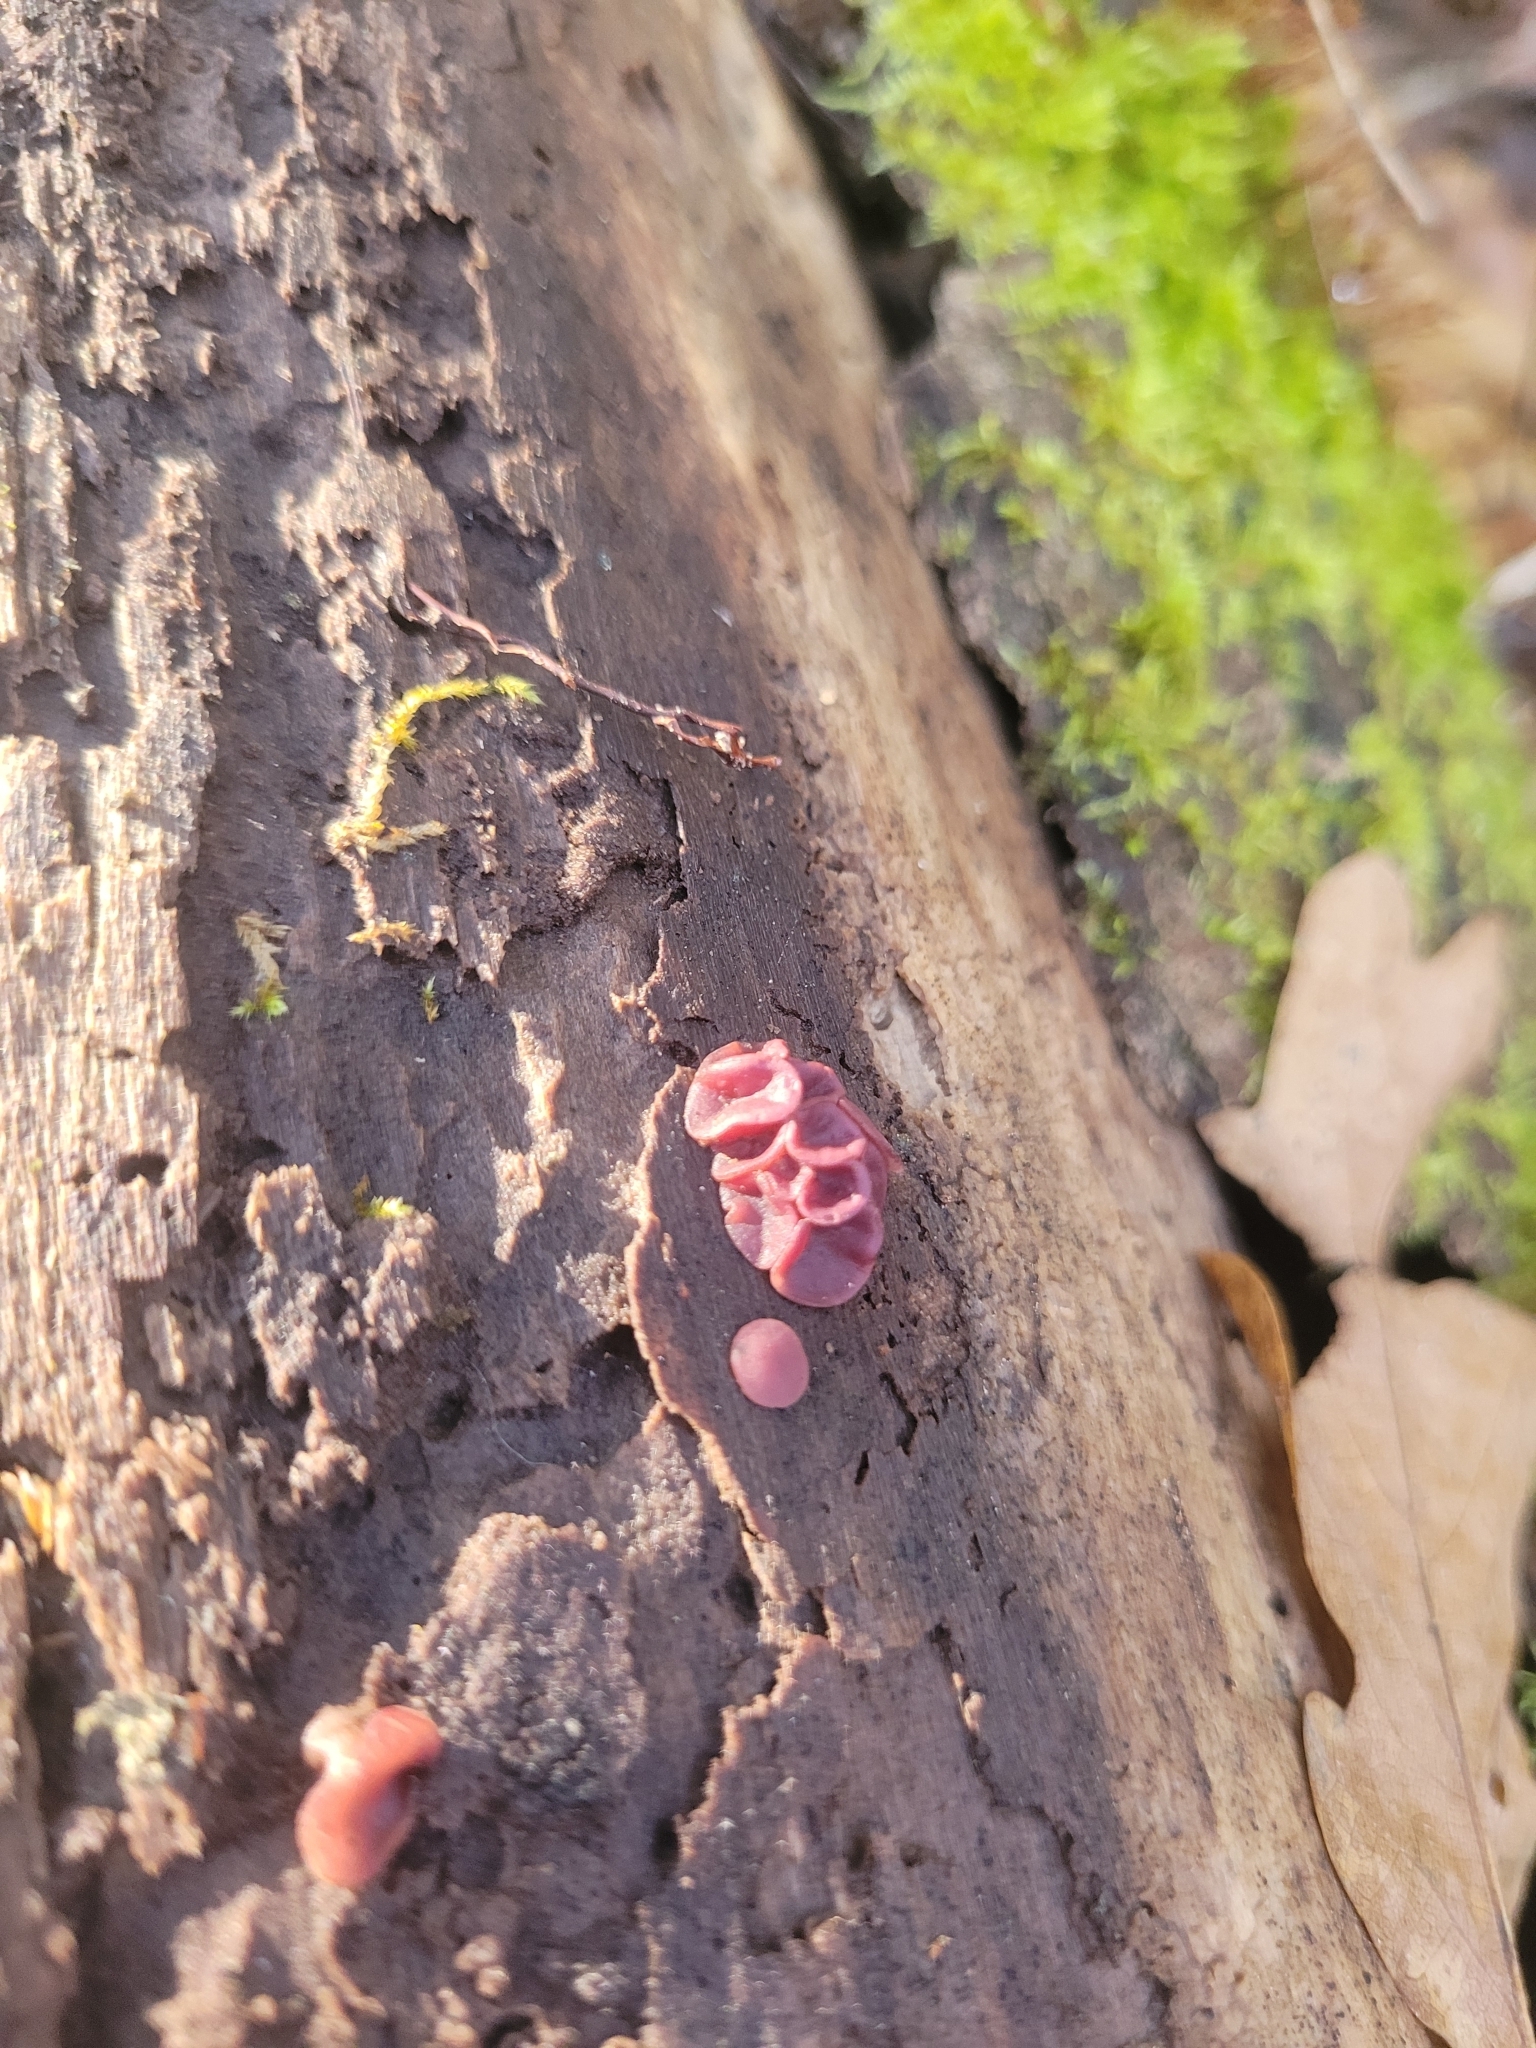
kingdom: Fungi
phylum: Ascomycota
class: Leotiomycetes
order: Helotiales
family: Gelatinodiscaceae
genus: Ascocoryne
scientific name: Ascocoryne cylichnium
